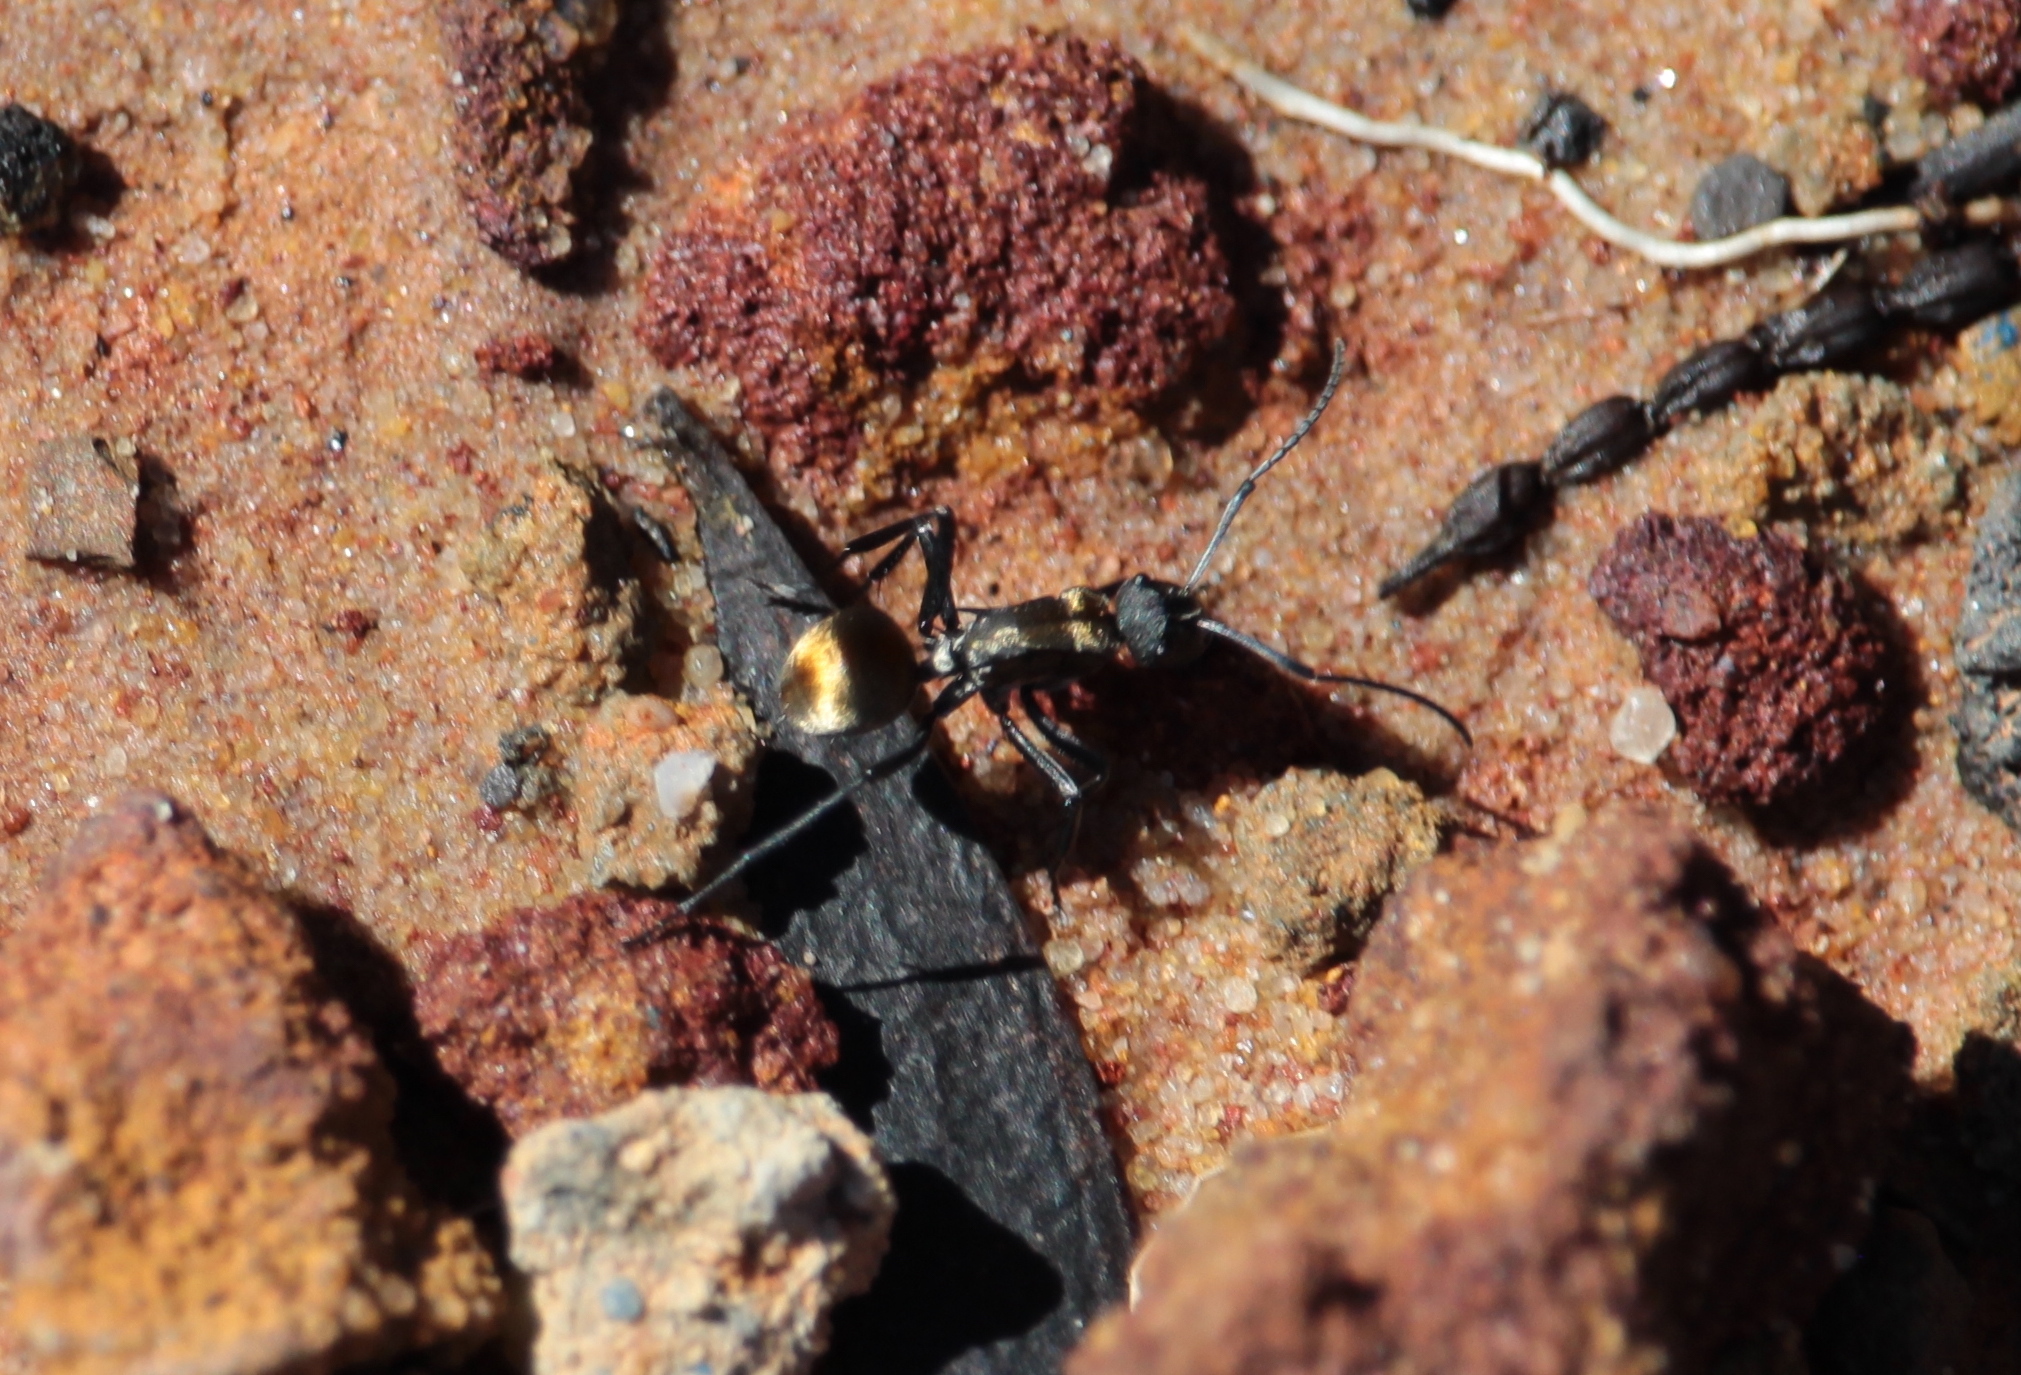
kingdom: Animalia
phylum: Arthropoda
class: Insecta
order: Hymenoptera
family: Formicidae
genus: Polyrhachis
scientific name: Polyrhachis ammon
